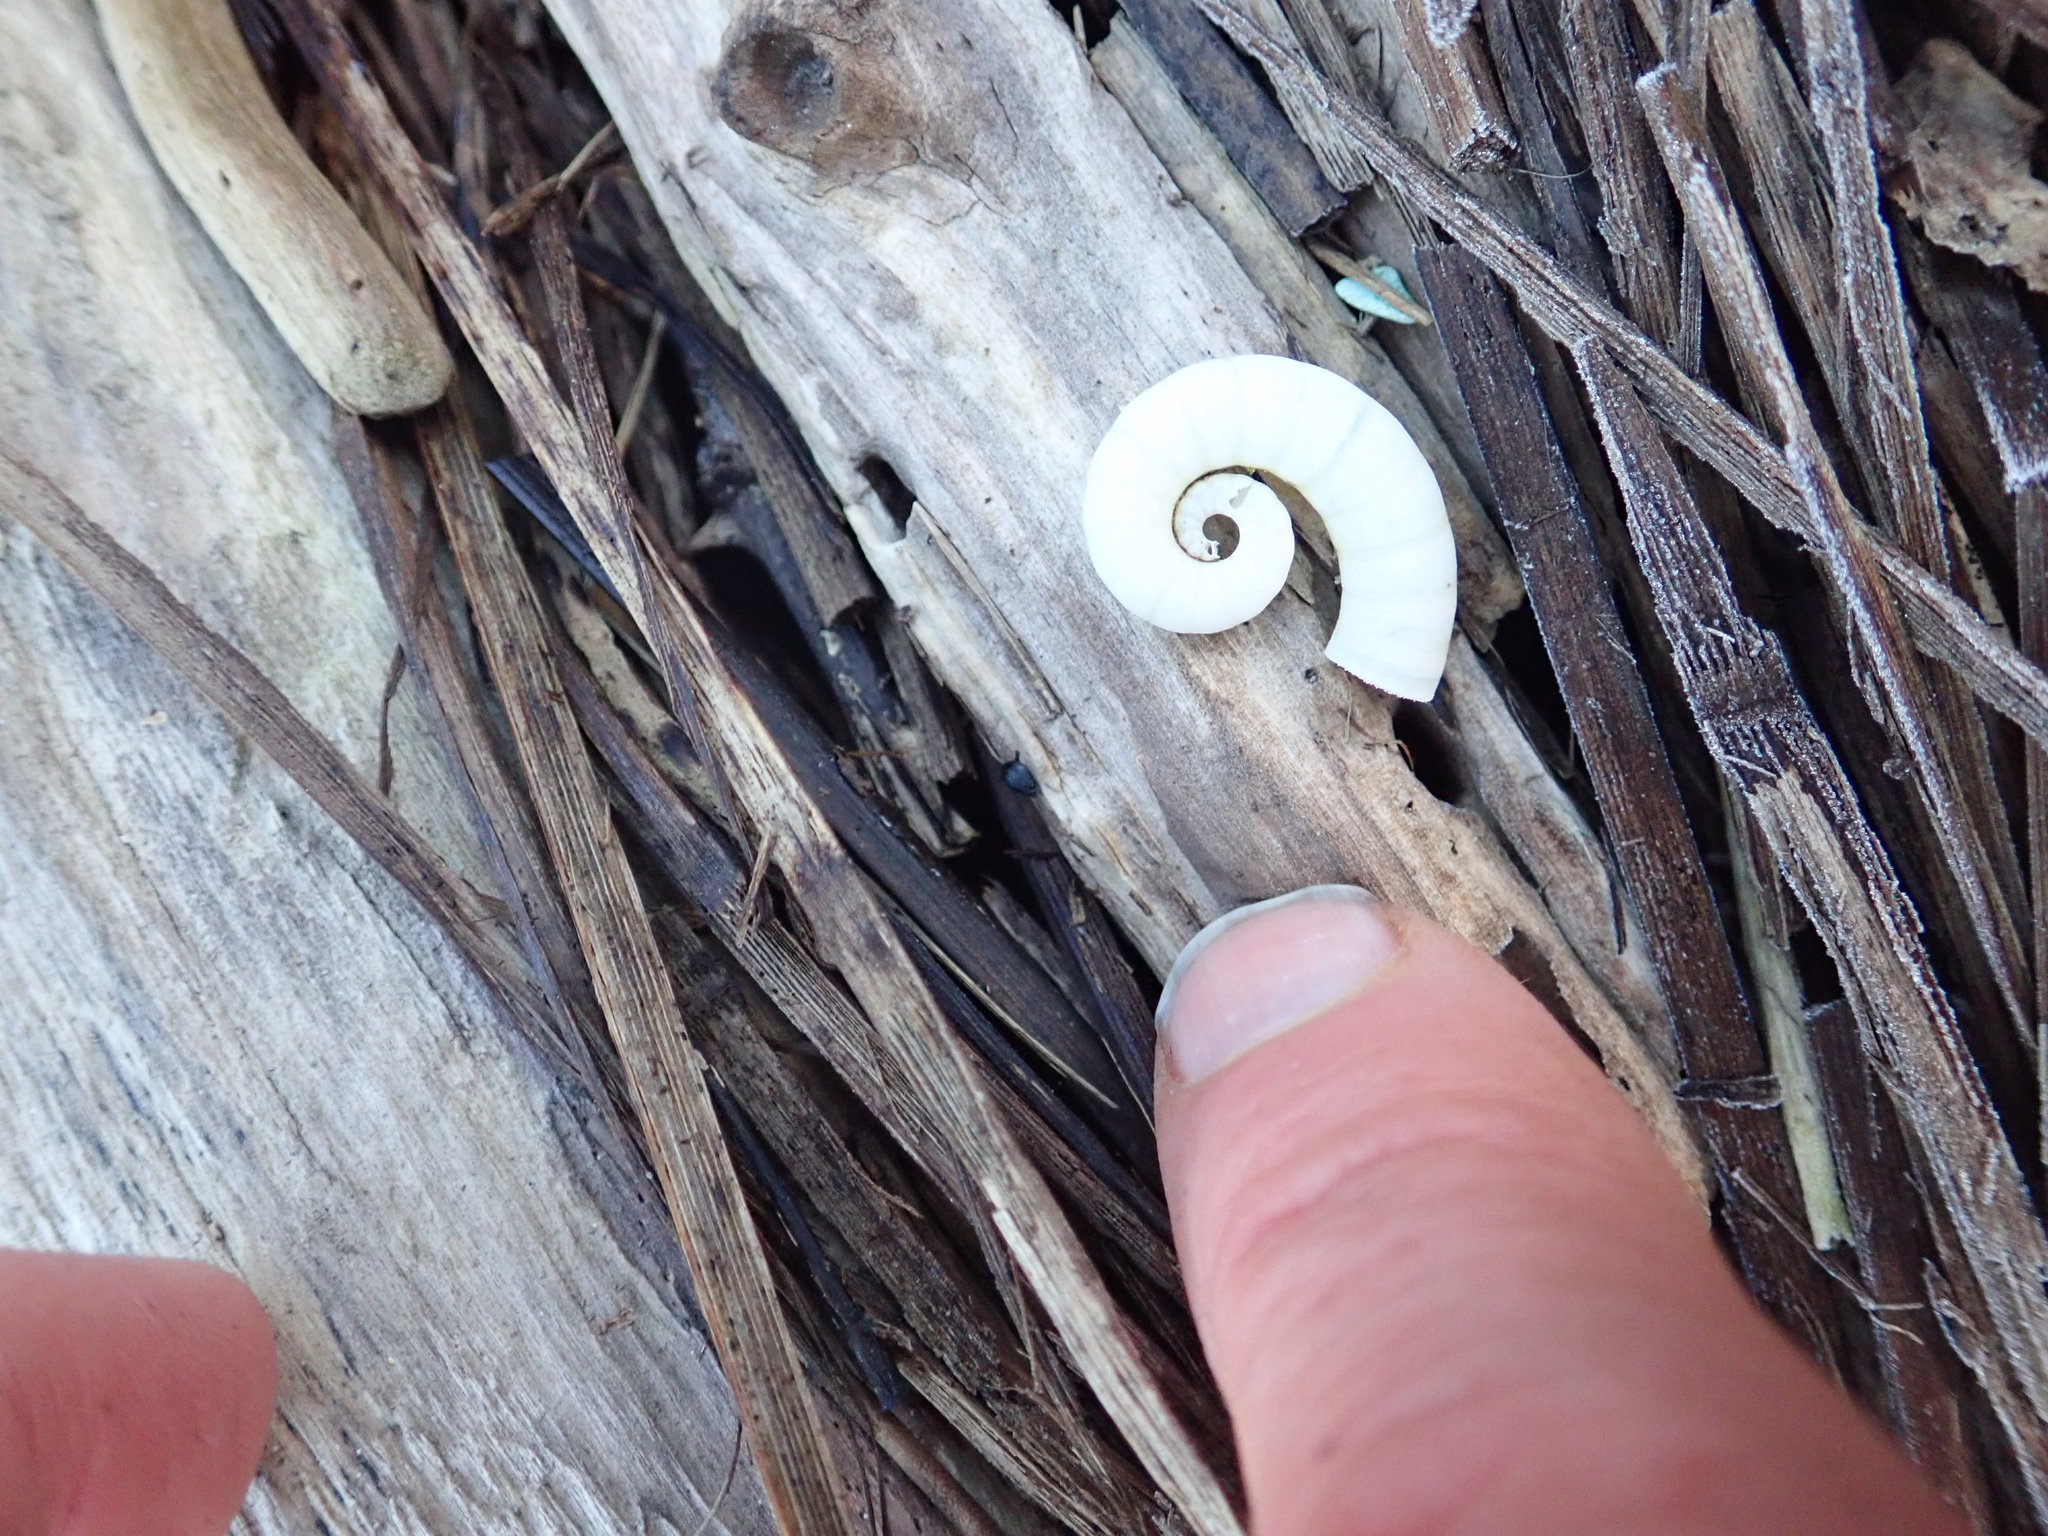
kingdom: Animalia
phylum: Mollusca
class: Cephalopoda
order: Spirulida
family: Spirulidae
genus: Spirula
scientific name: Spirula spirula
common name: Ram's horn squid
